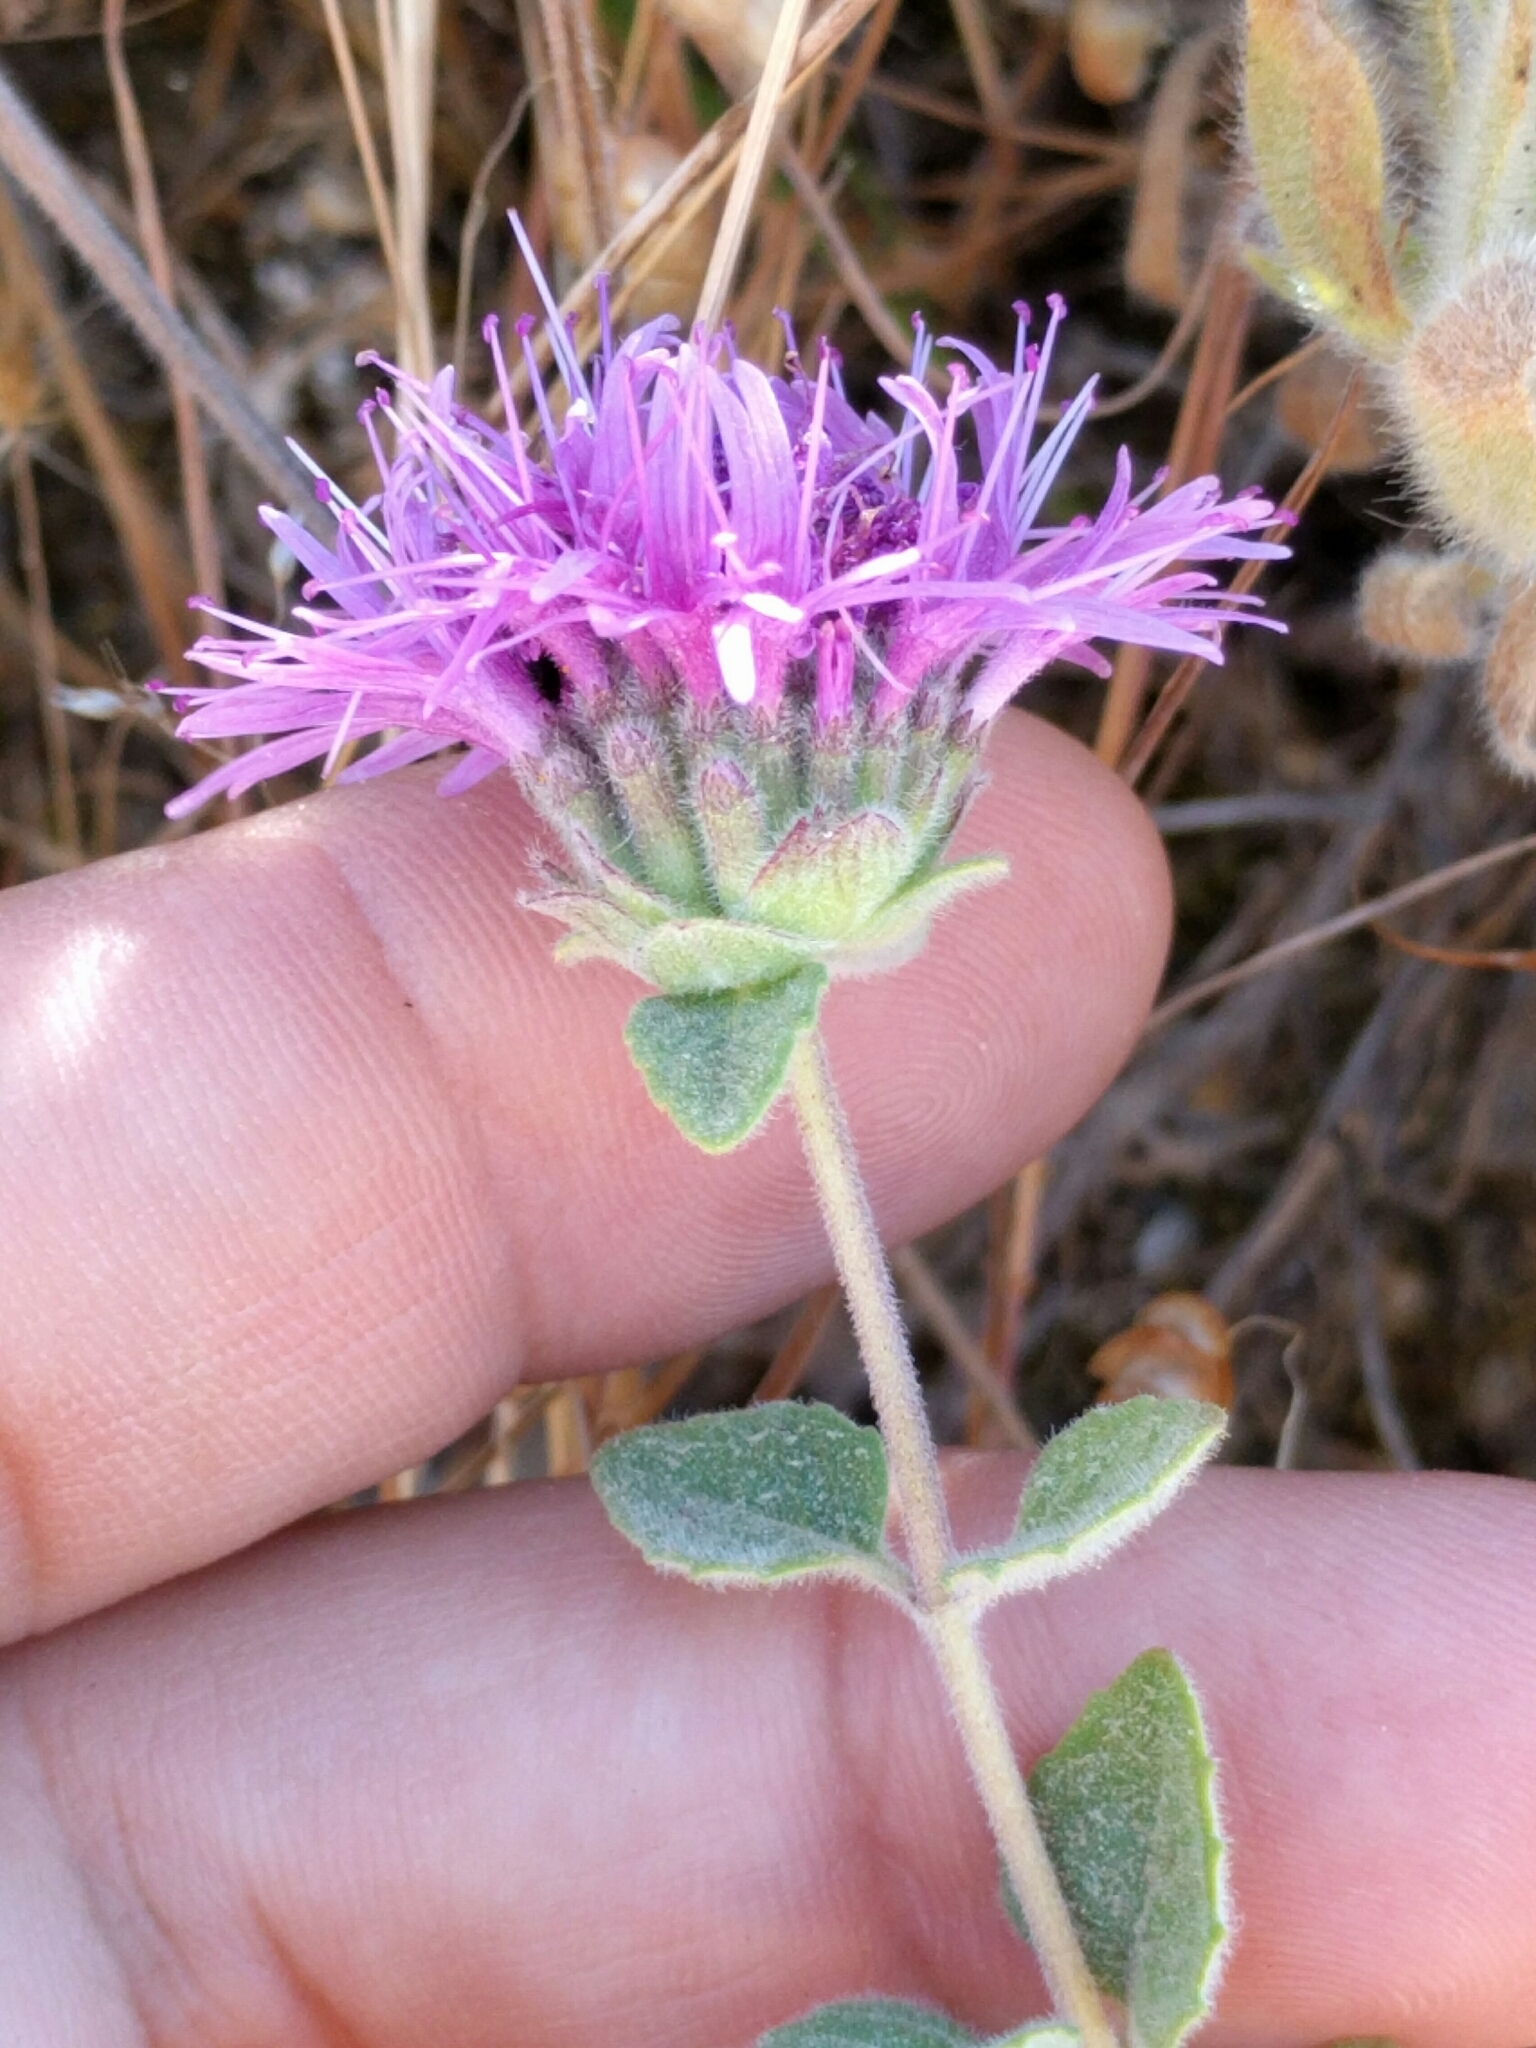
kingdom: Plantae
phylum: Tracheophyta
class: Magnoliopsida
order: Lamiales
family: Lamiaceae
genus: Monardella
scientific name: Monardella odoratissima
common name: Pacific monardella
